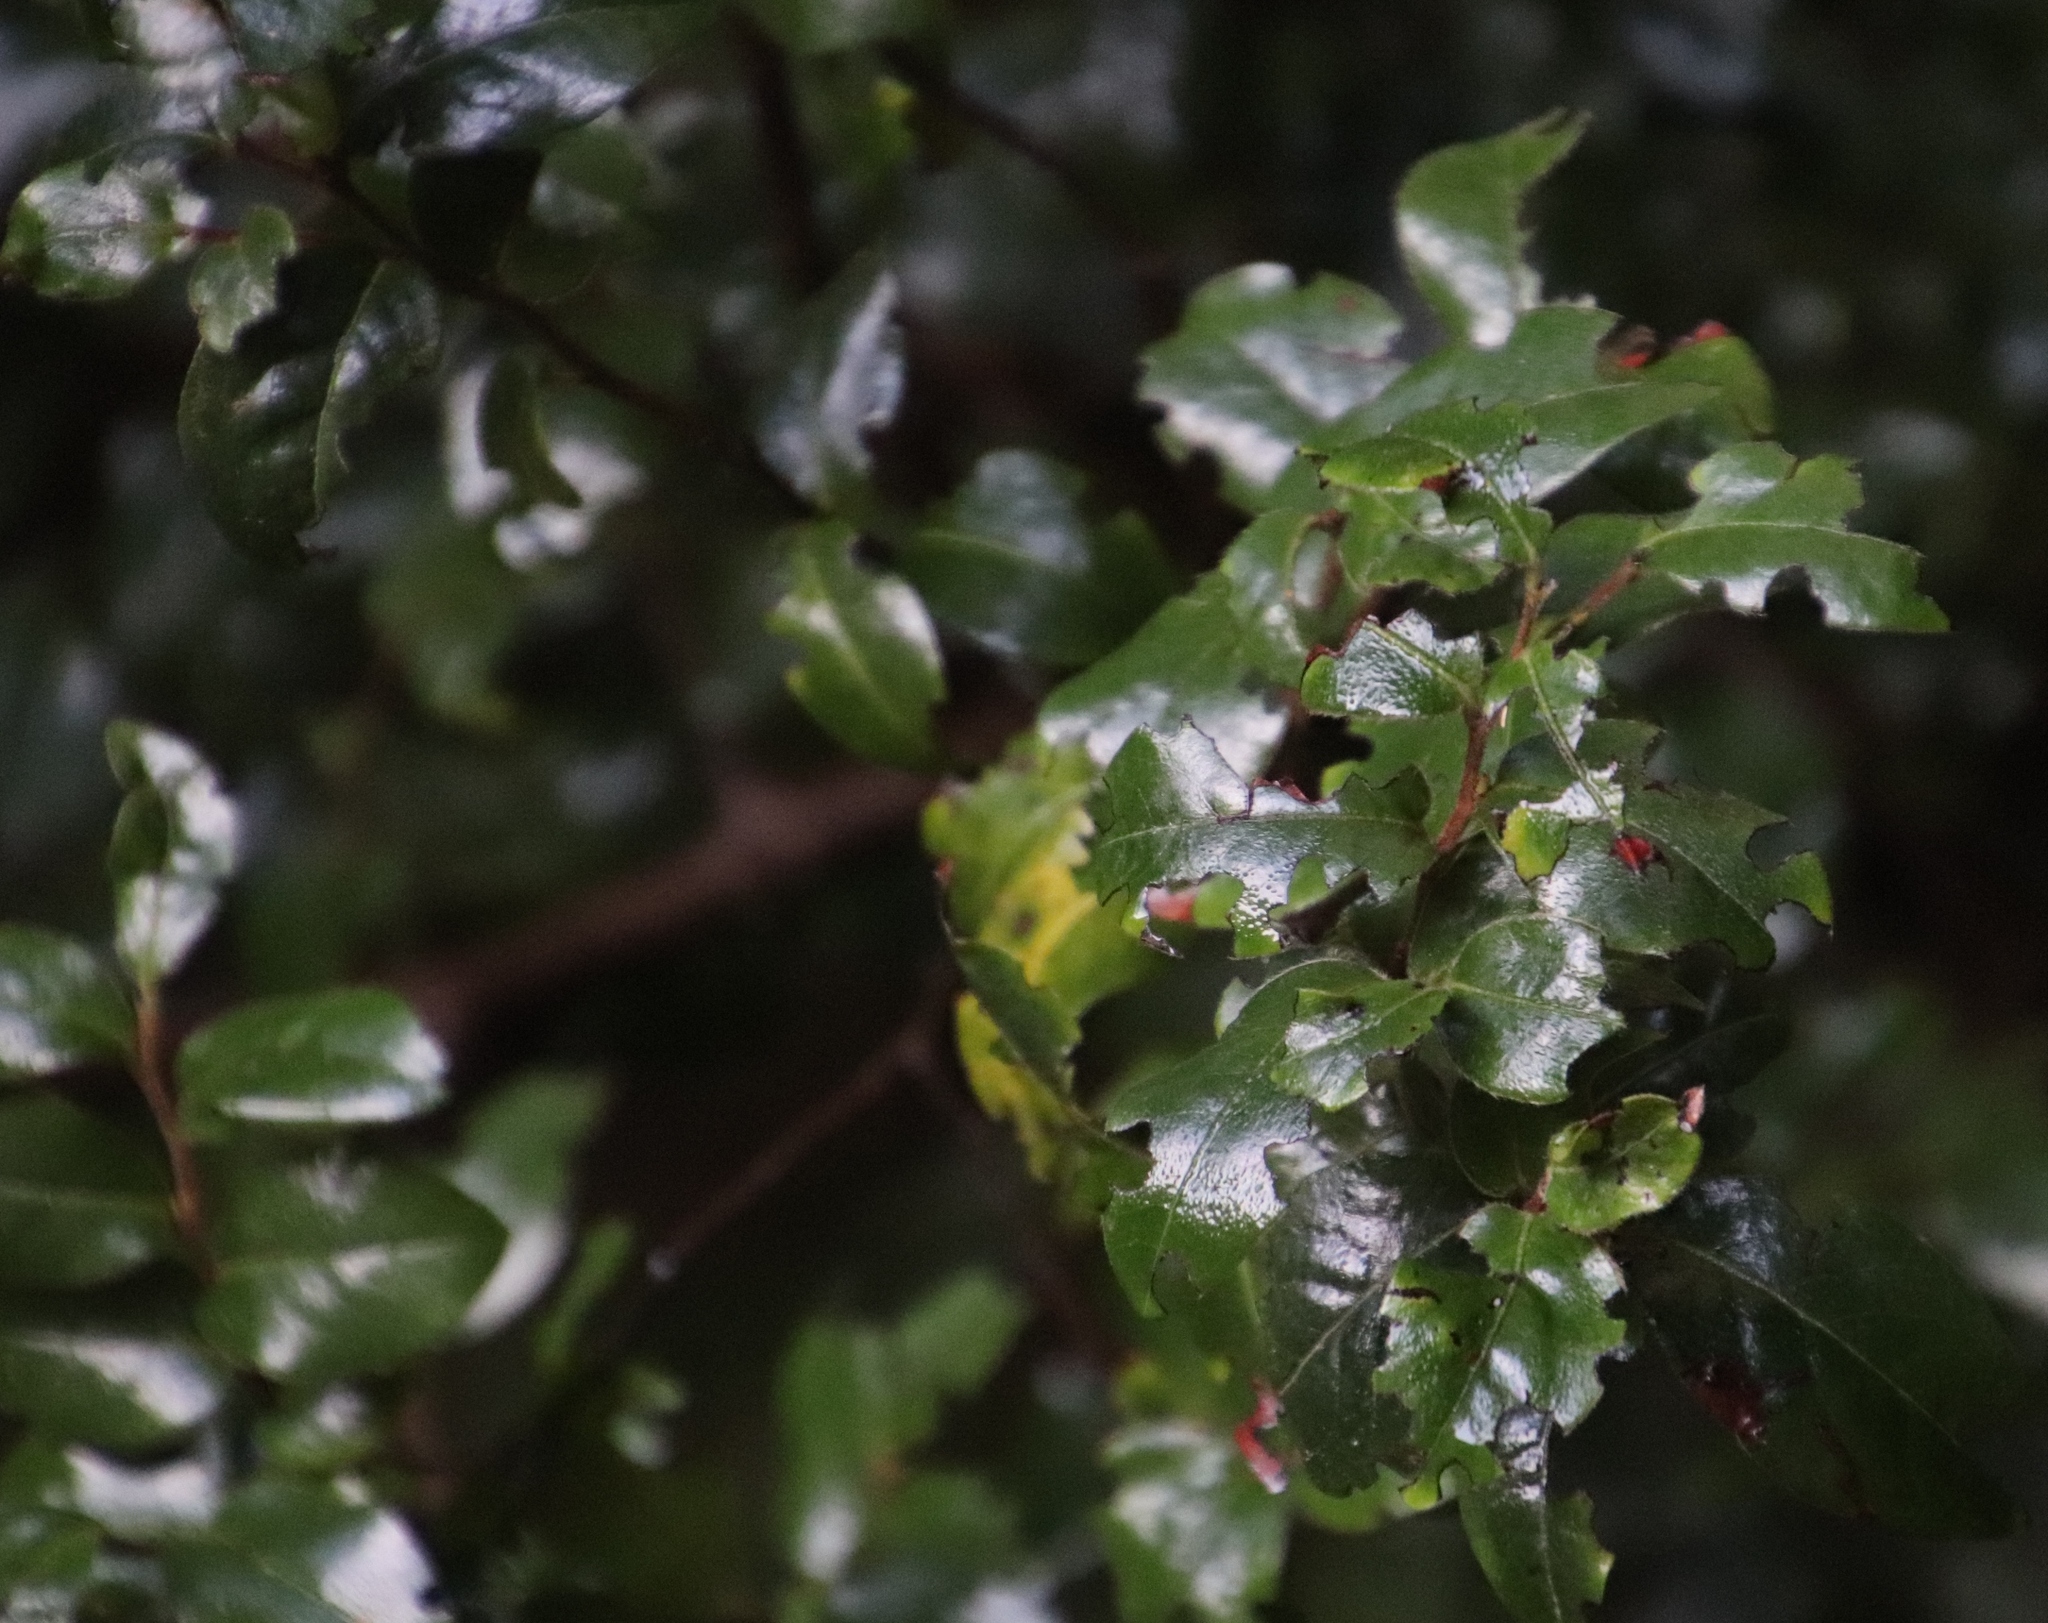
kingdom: Plantae
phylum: Tracheophyta
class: Magnoliopsida
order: Ericales
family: Ebenaceae
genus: Diospyros
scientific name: Diospyros whyteana
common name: Bladder-nut
